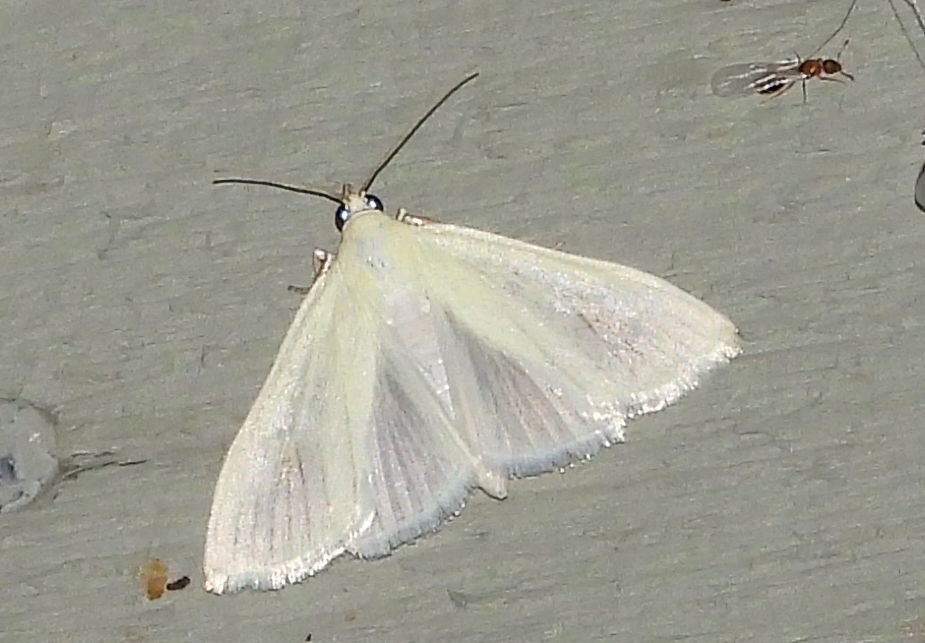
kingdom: Animalia
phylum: Arthropoda
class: Insecta
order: Lepidoptera
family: Crambidae
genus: Sitochroa
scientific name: Sitochroa palealis
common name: Greenish-yellow sitochroa moth
